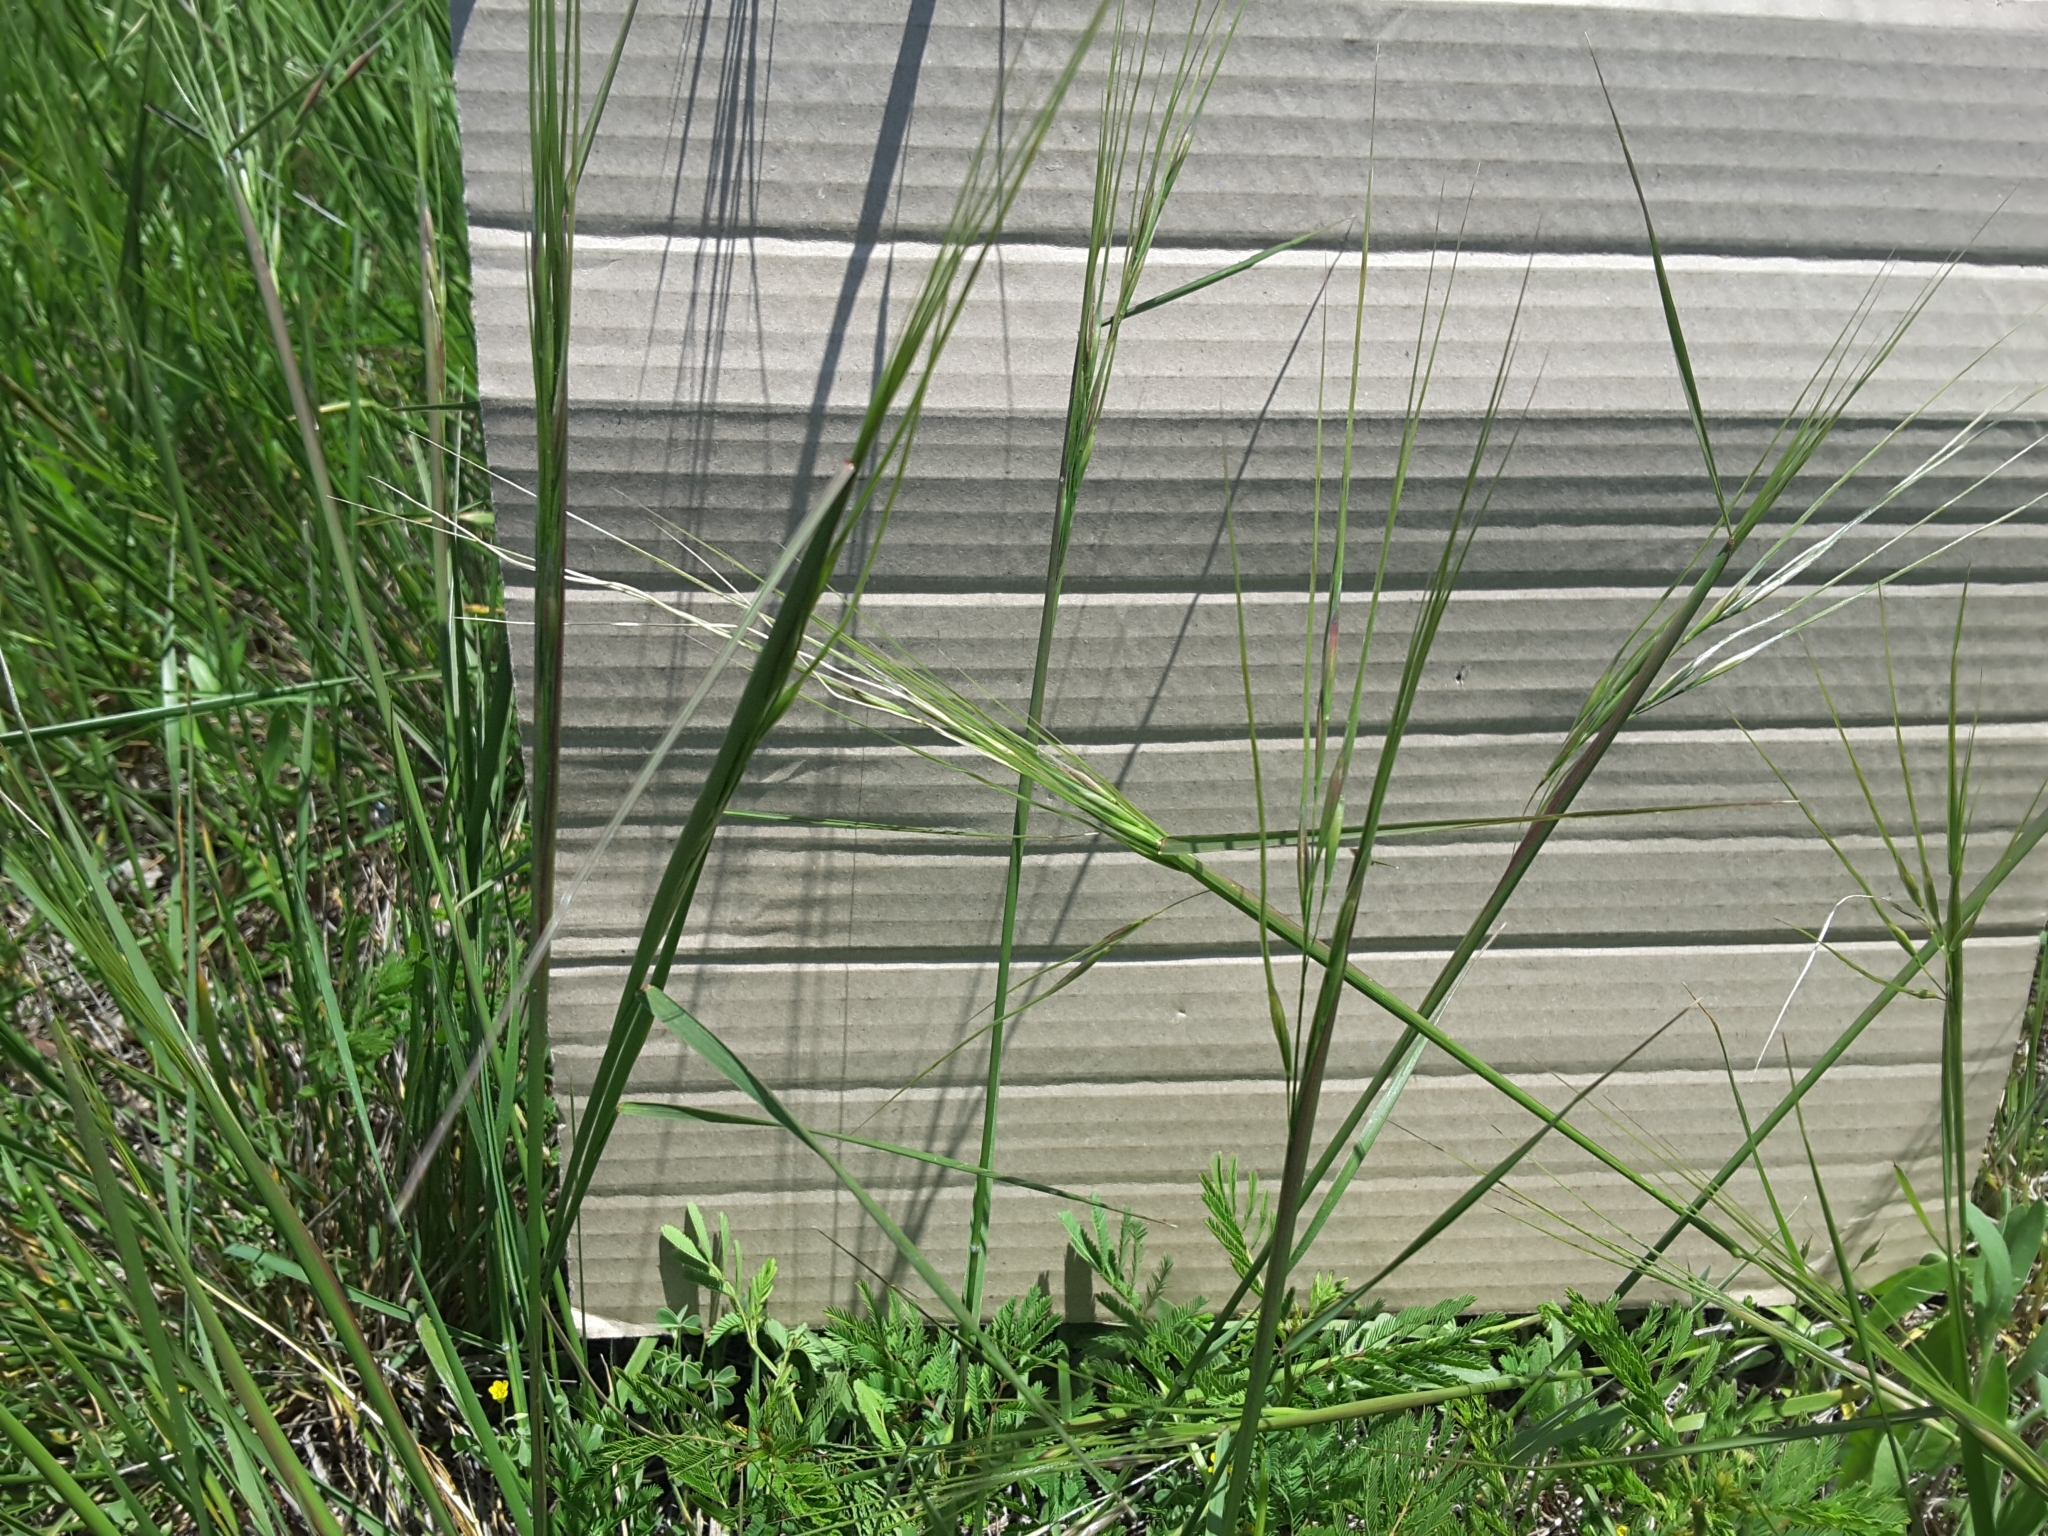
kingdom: Plantae
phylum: Tracheophyta
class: Liliopsida
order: Poales
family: Poaceae
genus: Nassella
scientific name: Nassella leucotricha
